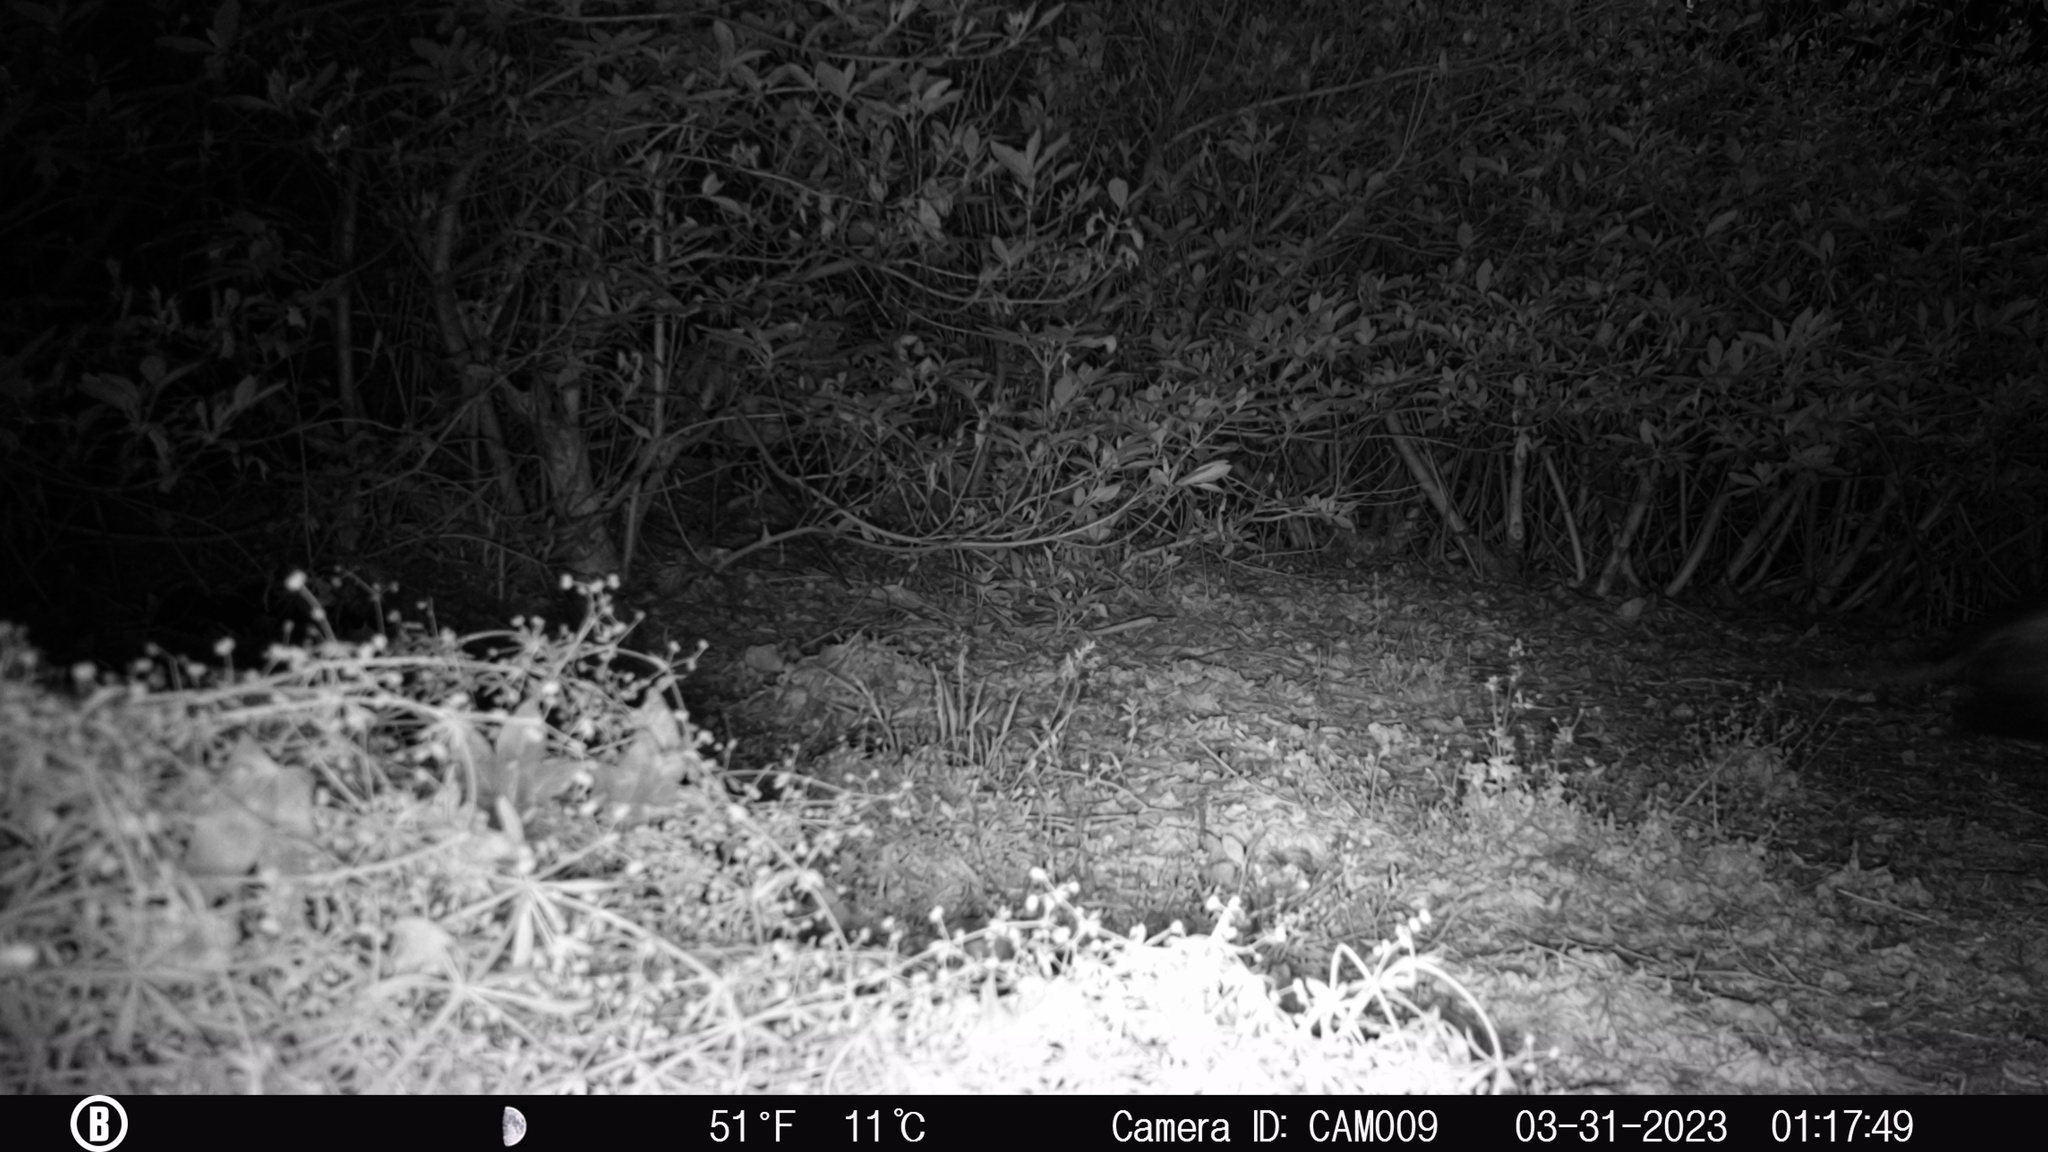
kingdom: Animalia
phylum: Chordata
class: Mammalia
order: Didelphimorphia
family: Didelphidae
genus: Didelphis
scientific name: Didelphis virginiana
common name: Virginia opossum
